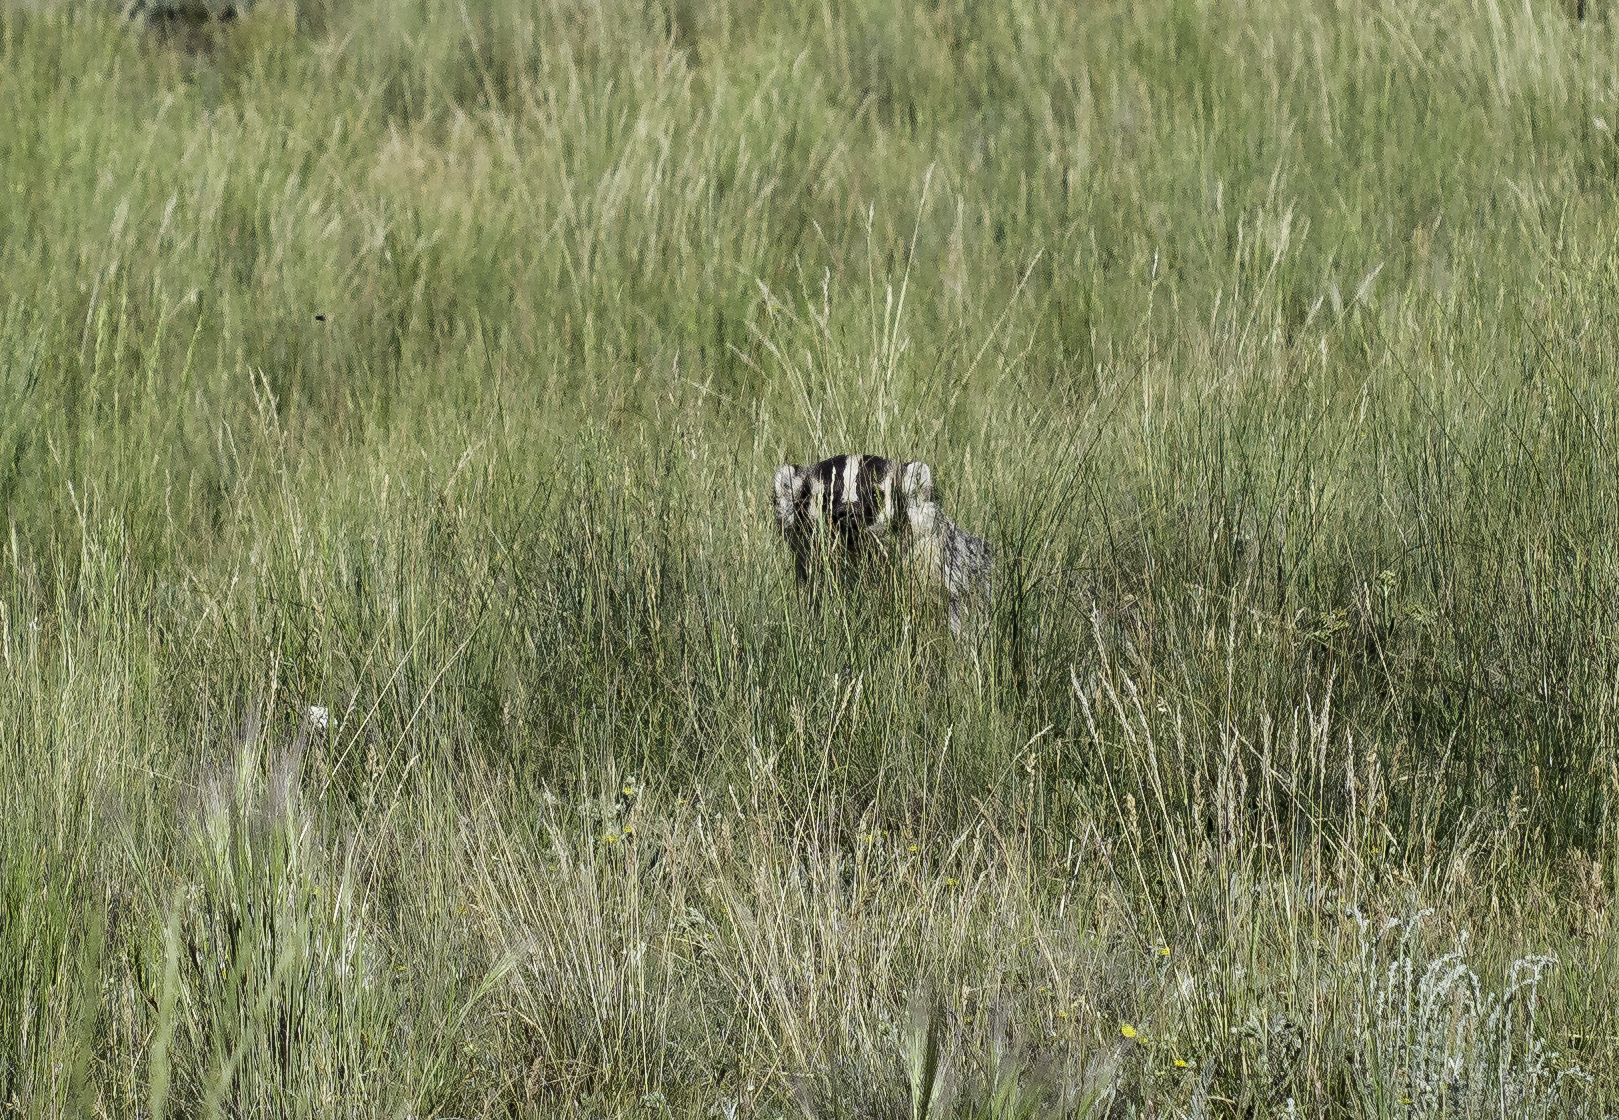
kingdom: Animalia
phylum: Chordata
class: Mammalia
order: Carnivora
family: Mustelidae
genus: Taxidea
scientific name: Taxidea taxus
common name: American badger
